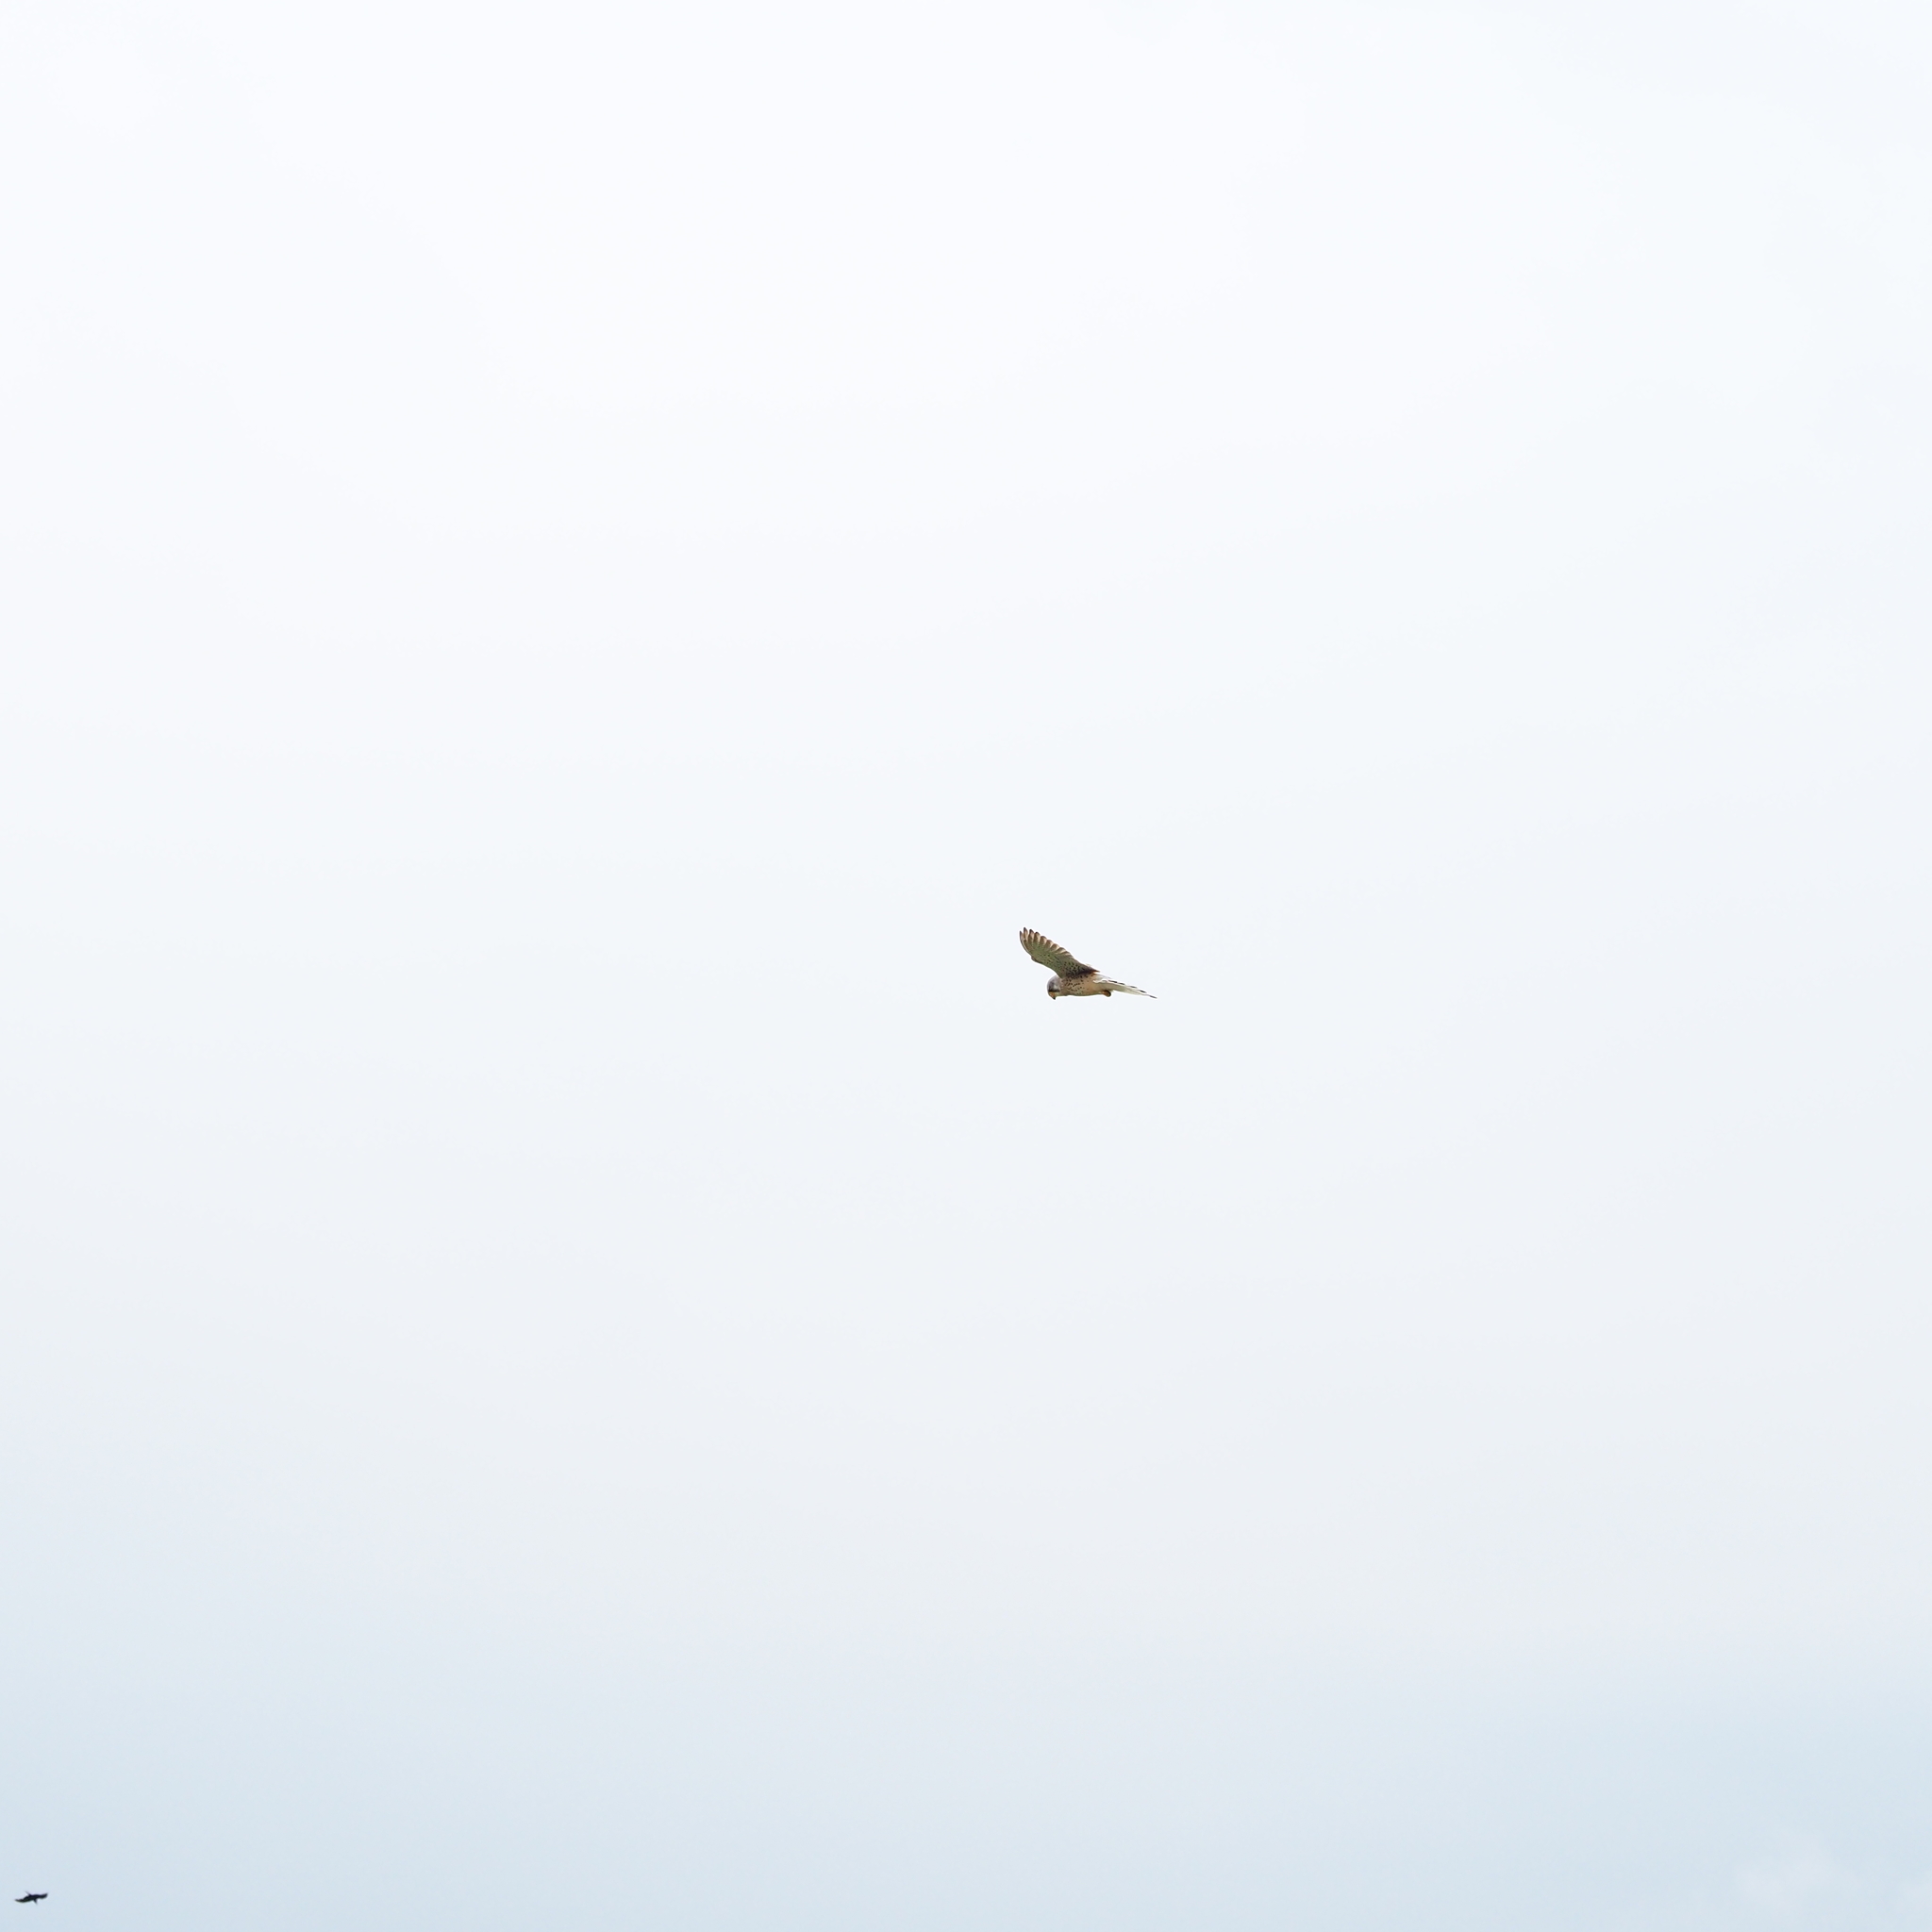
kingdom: Animalia
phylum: Chordata
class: Aves
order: Falconiformes
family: Falconidae
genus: Falco
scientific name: Falco tinnunculus
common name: Common kestrel
